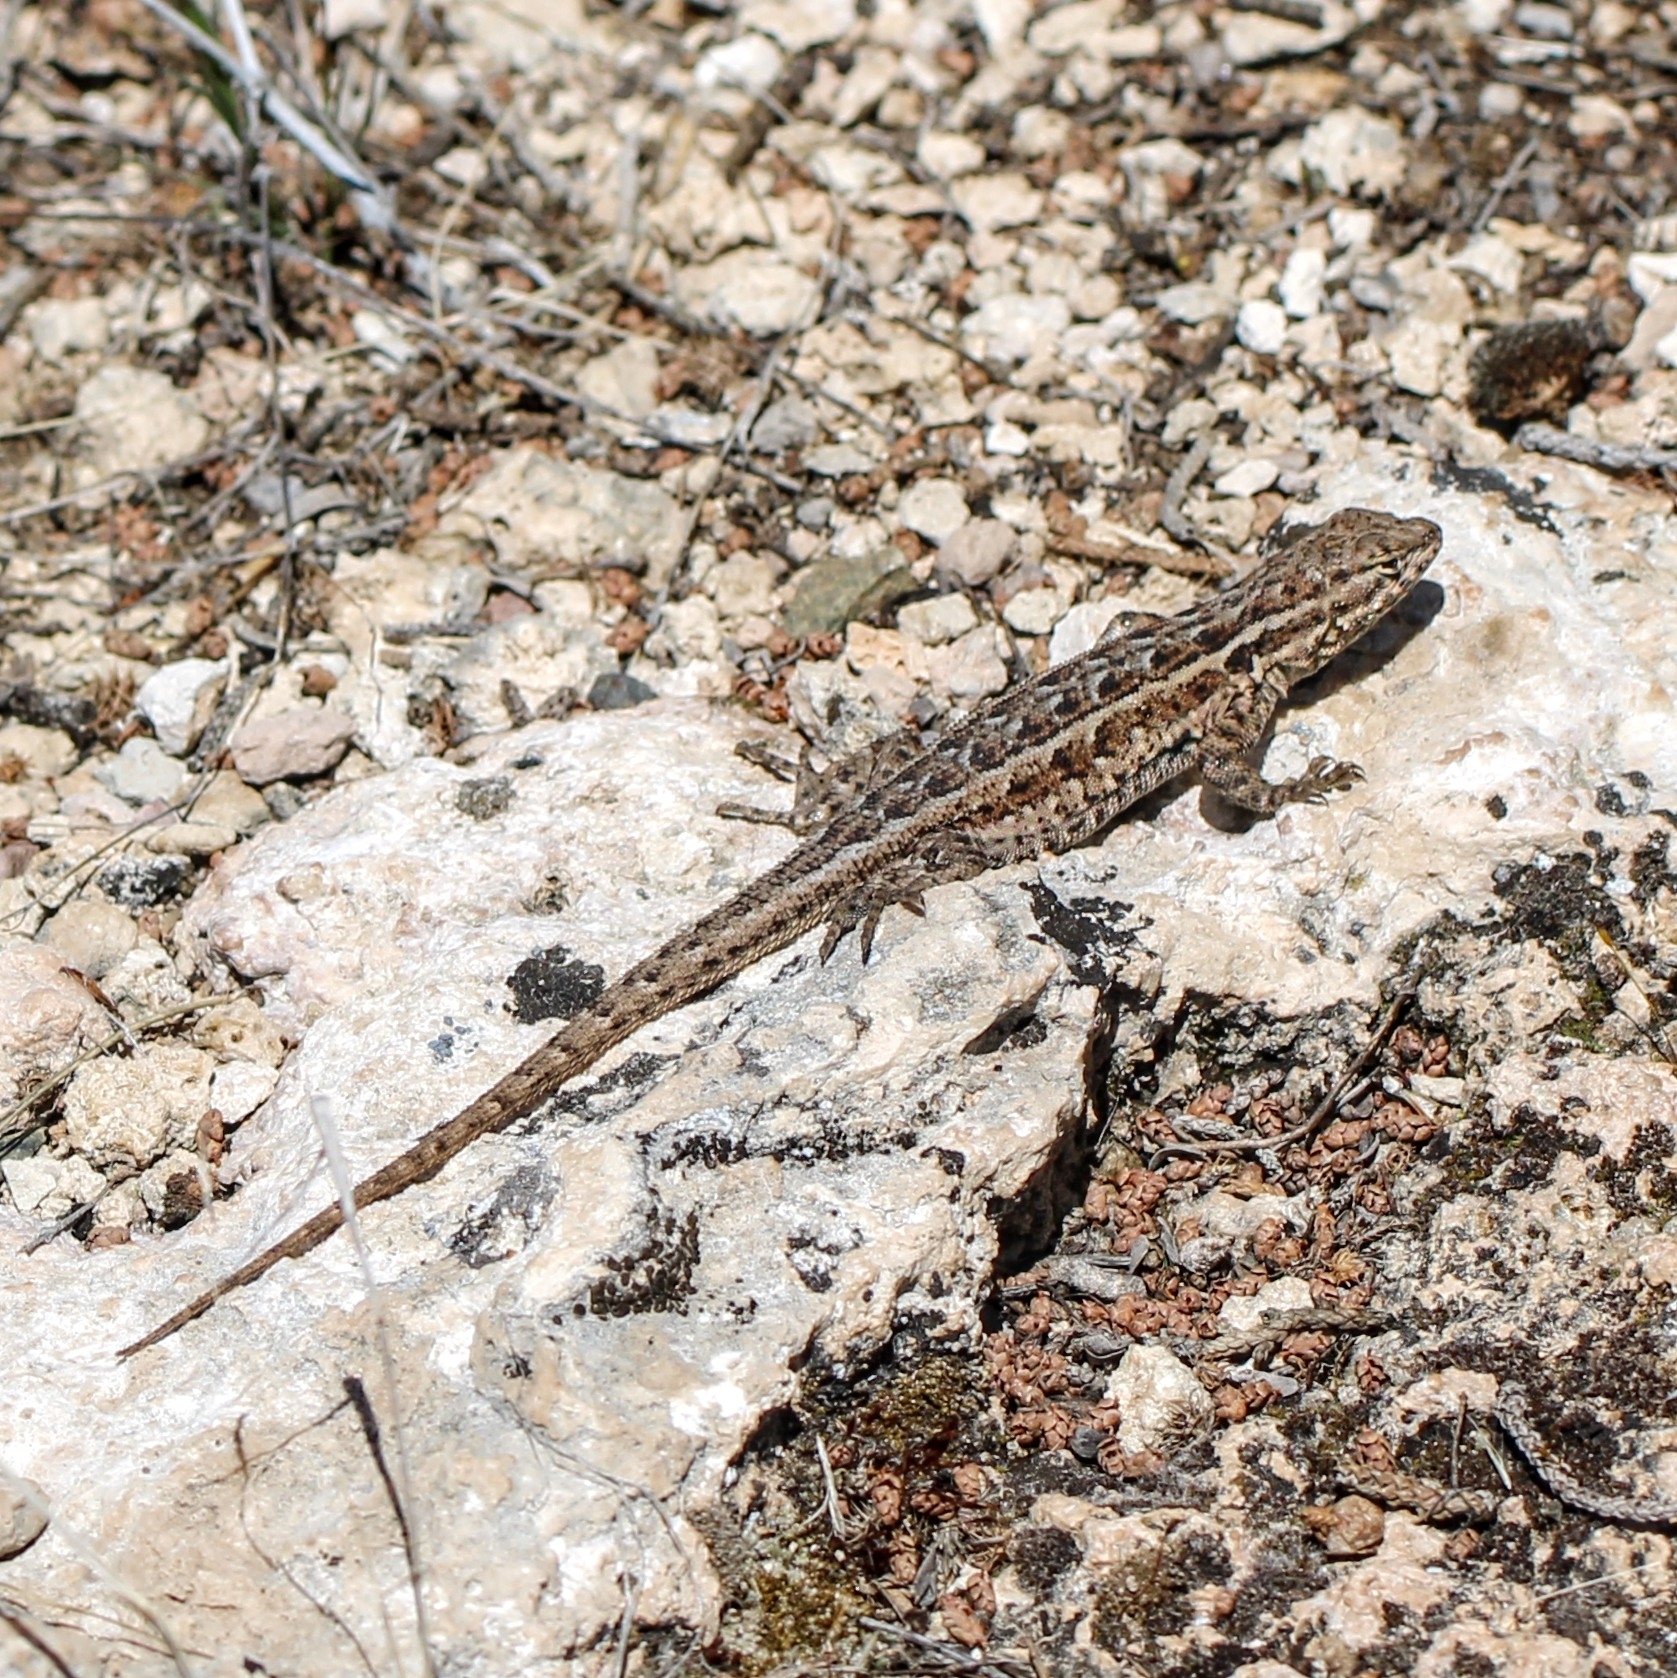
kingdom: Animalia
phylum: Chordata
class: Squamata
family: Phrynosomatidae
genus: Uta
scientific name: Uta stansburiana
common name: Side-blotched lizard
